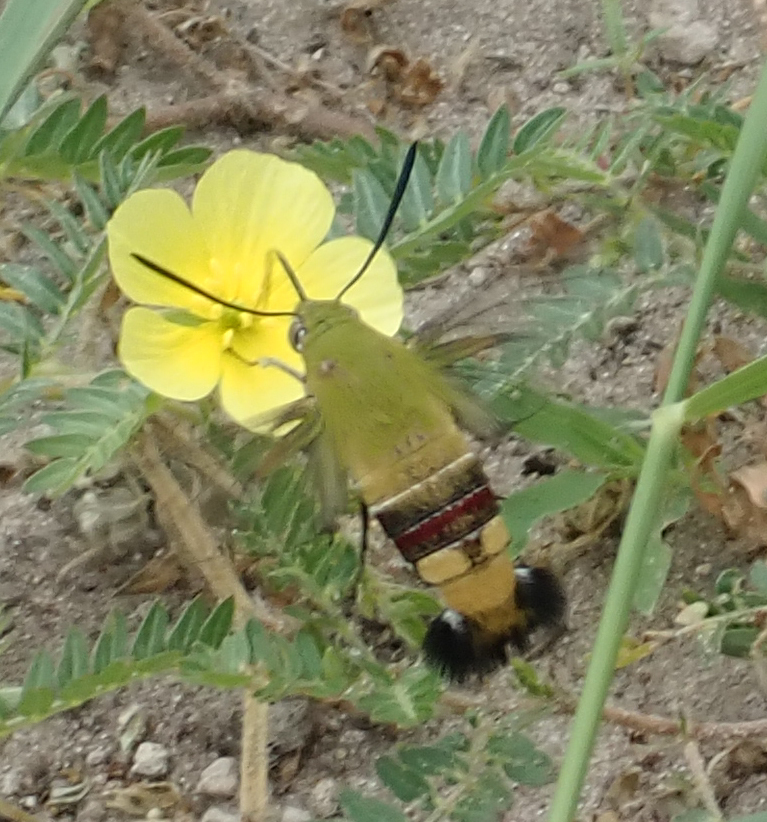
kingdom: Animalia
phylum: Arthropoda
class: Insecta
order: Lepidoptera
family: Sphingidae
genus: Cephonodes
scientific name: Cephonodes hylas
